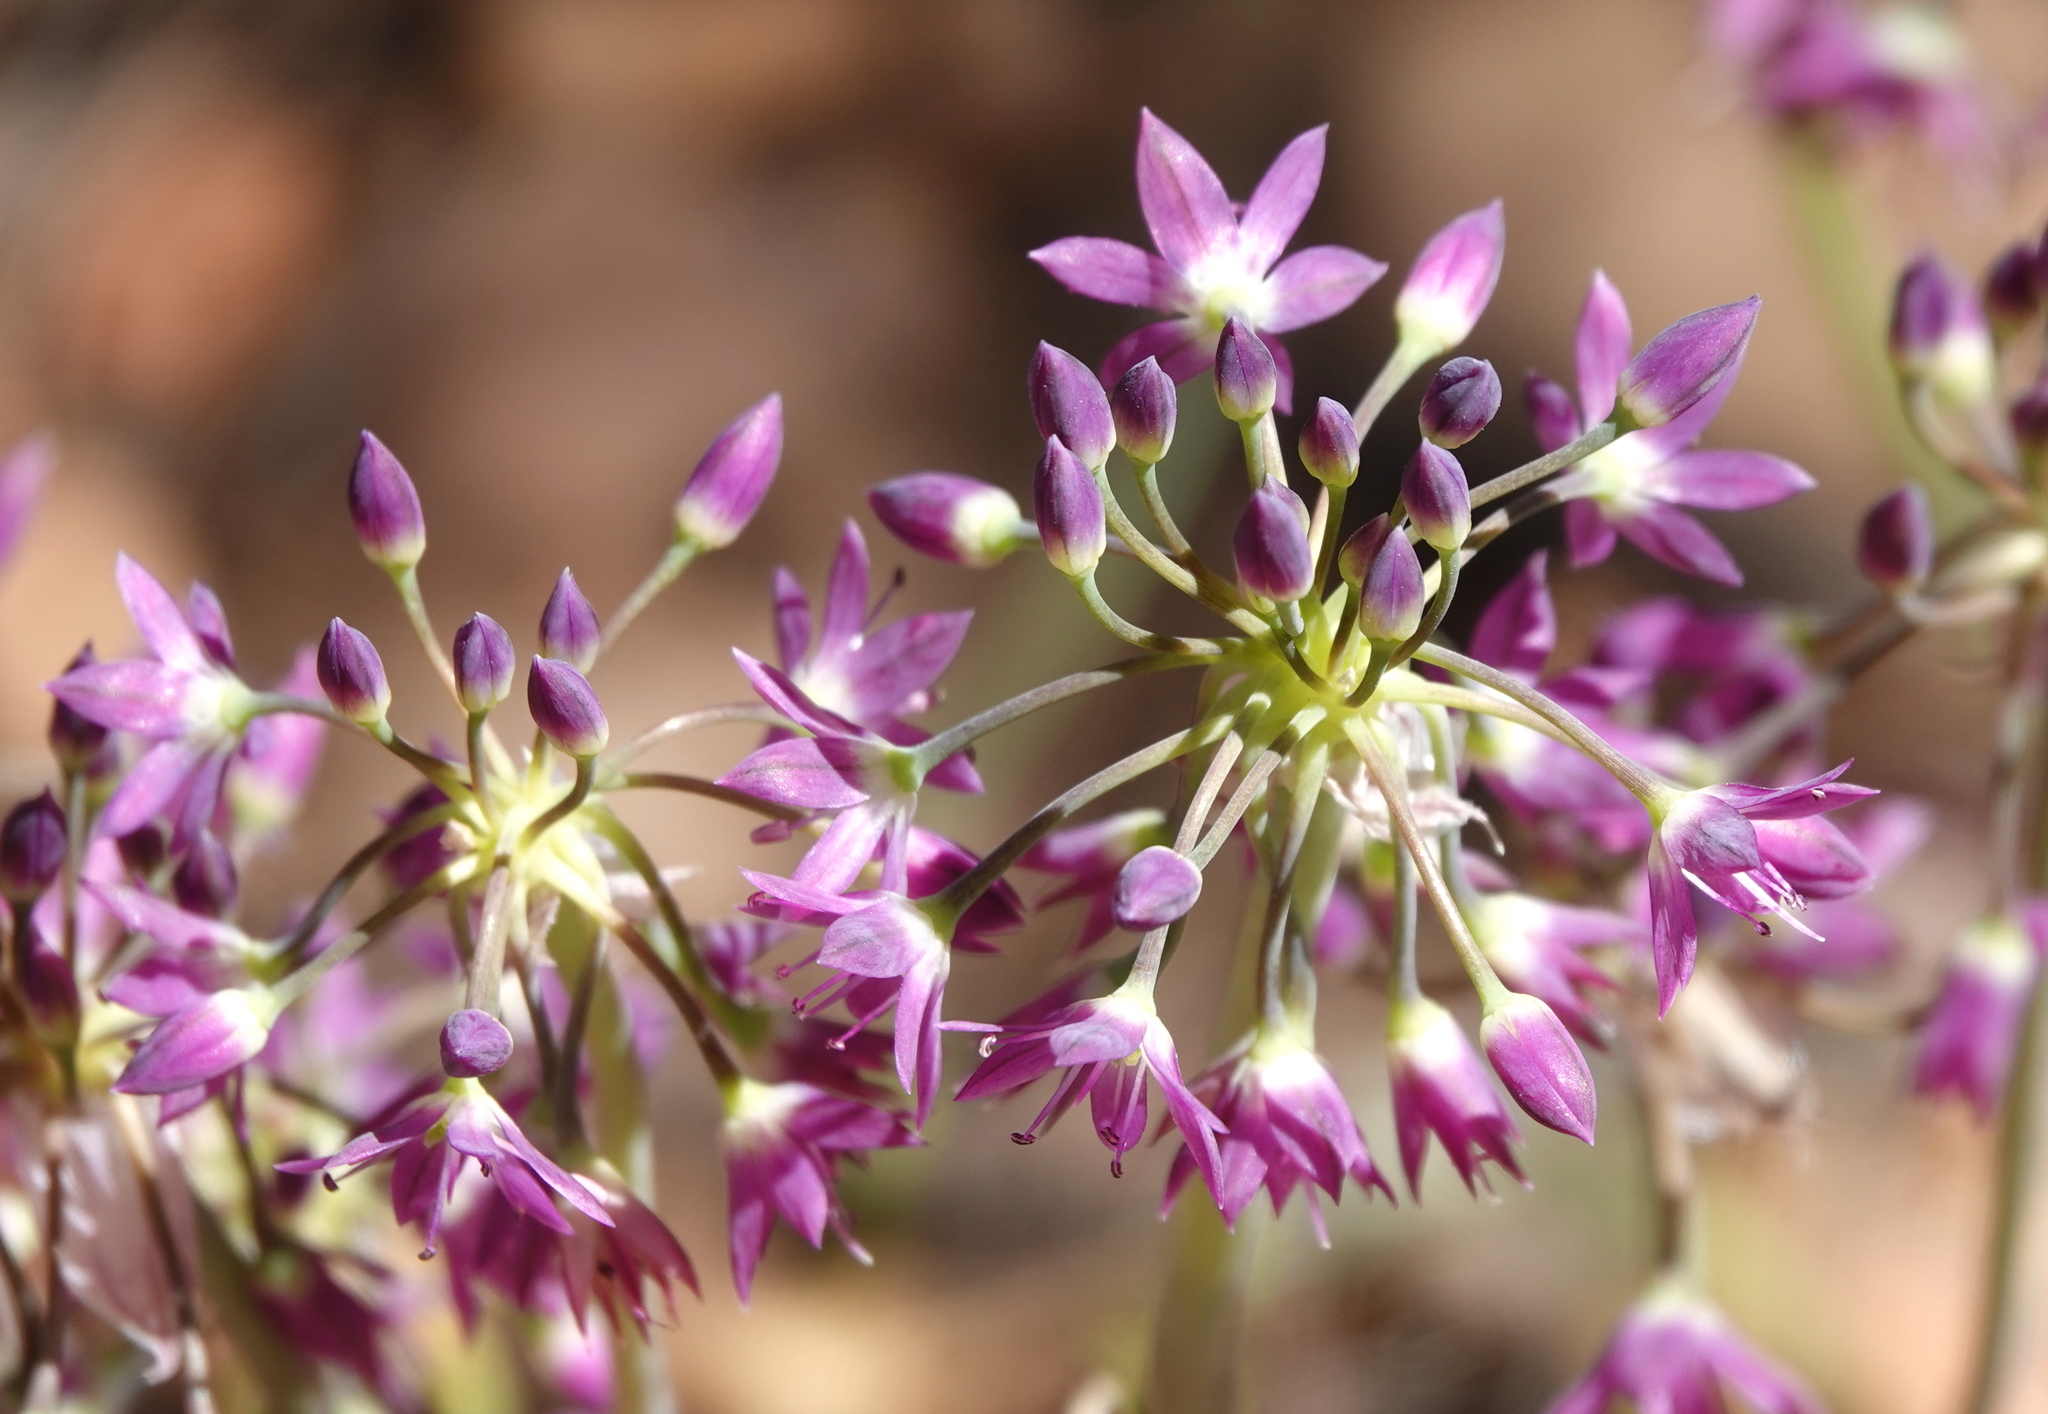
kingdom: Plantae
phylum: Tracheophyta
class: Liliopsida
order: Asparagales
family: Amaryllidaceae
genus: Allium
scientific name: Allium campanulatum
